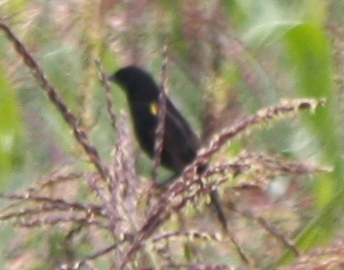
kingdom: Animalia
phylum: Chordata
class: Aves
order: Passeriformes
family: Icteridae
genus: Agelasticus
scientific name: Agelasticus thilius
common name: Yellow-winged blackbird
